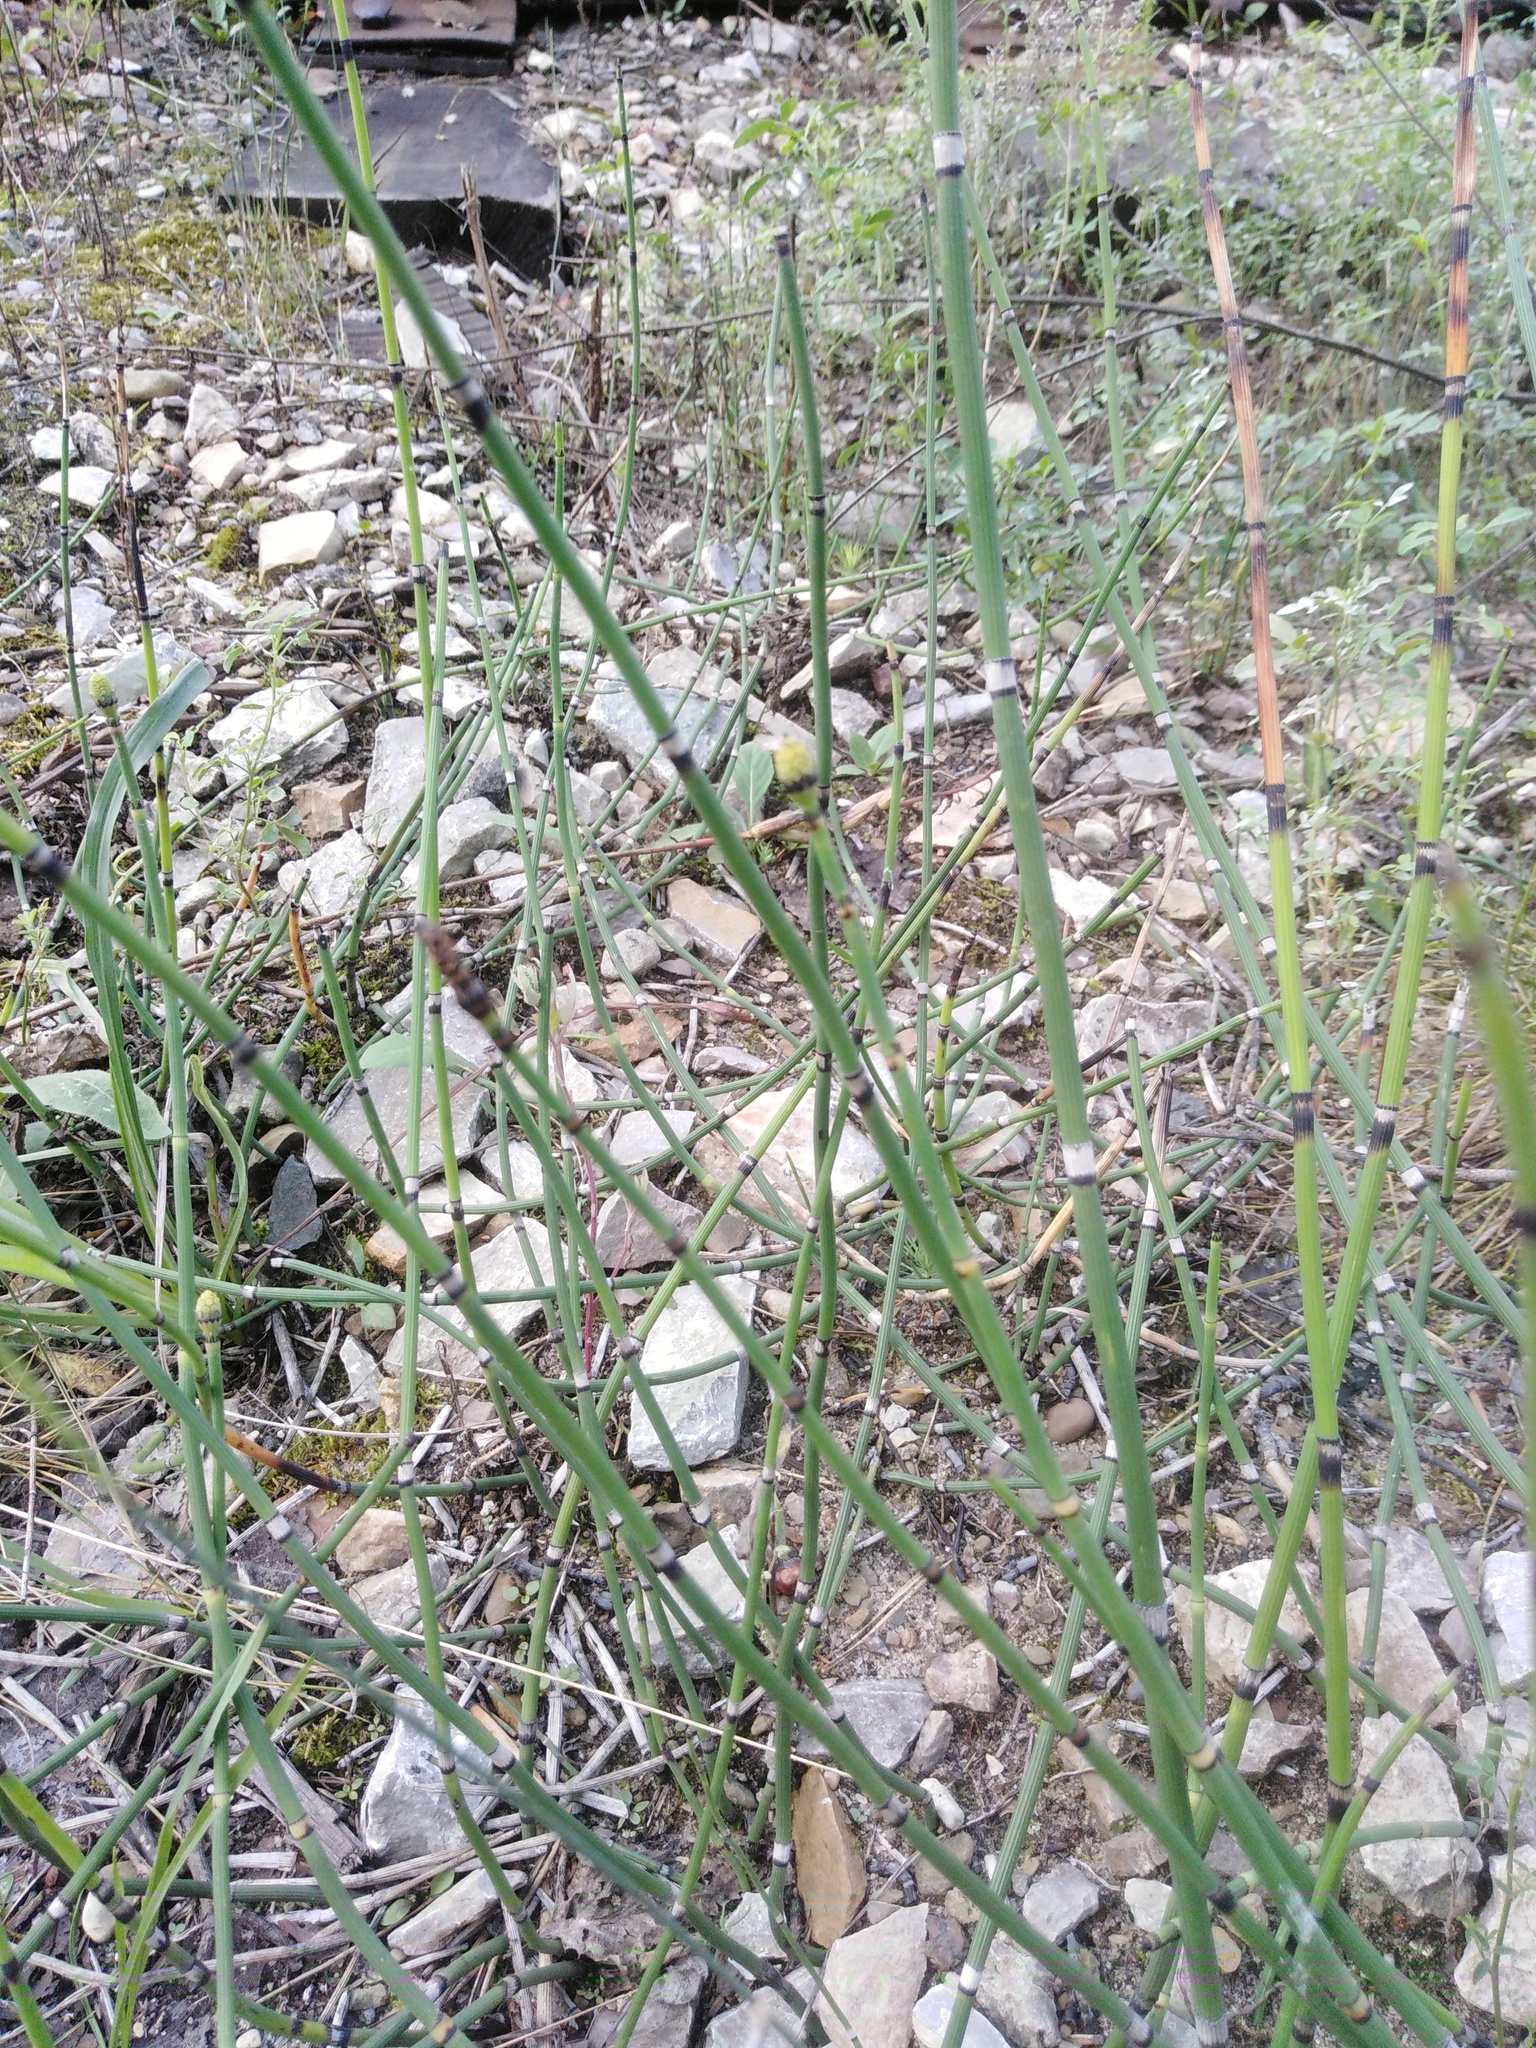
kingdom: Plantae
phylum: Tracheophyta
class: Polypodiopsida
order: Equisetales
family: Equisetaceae
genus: Equisetum
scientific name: Equisetum hyemale
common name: Rough horsetail
